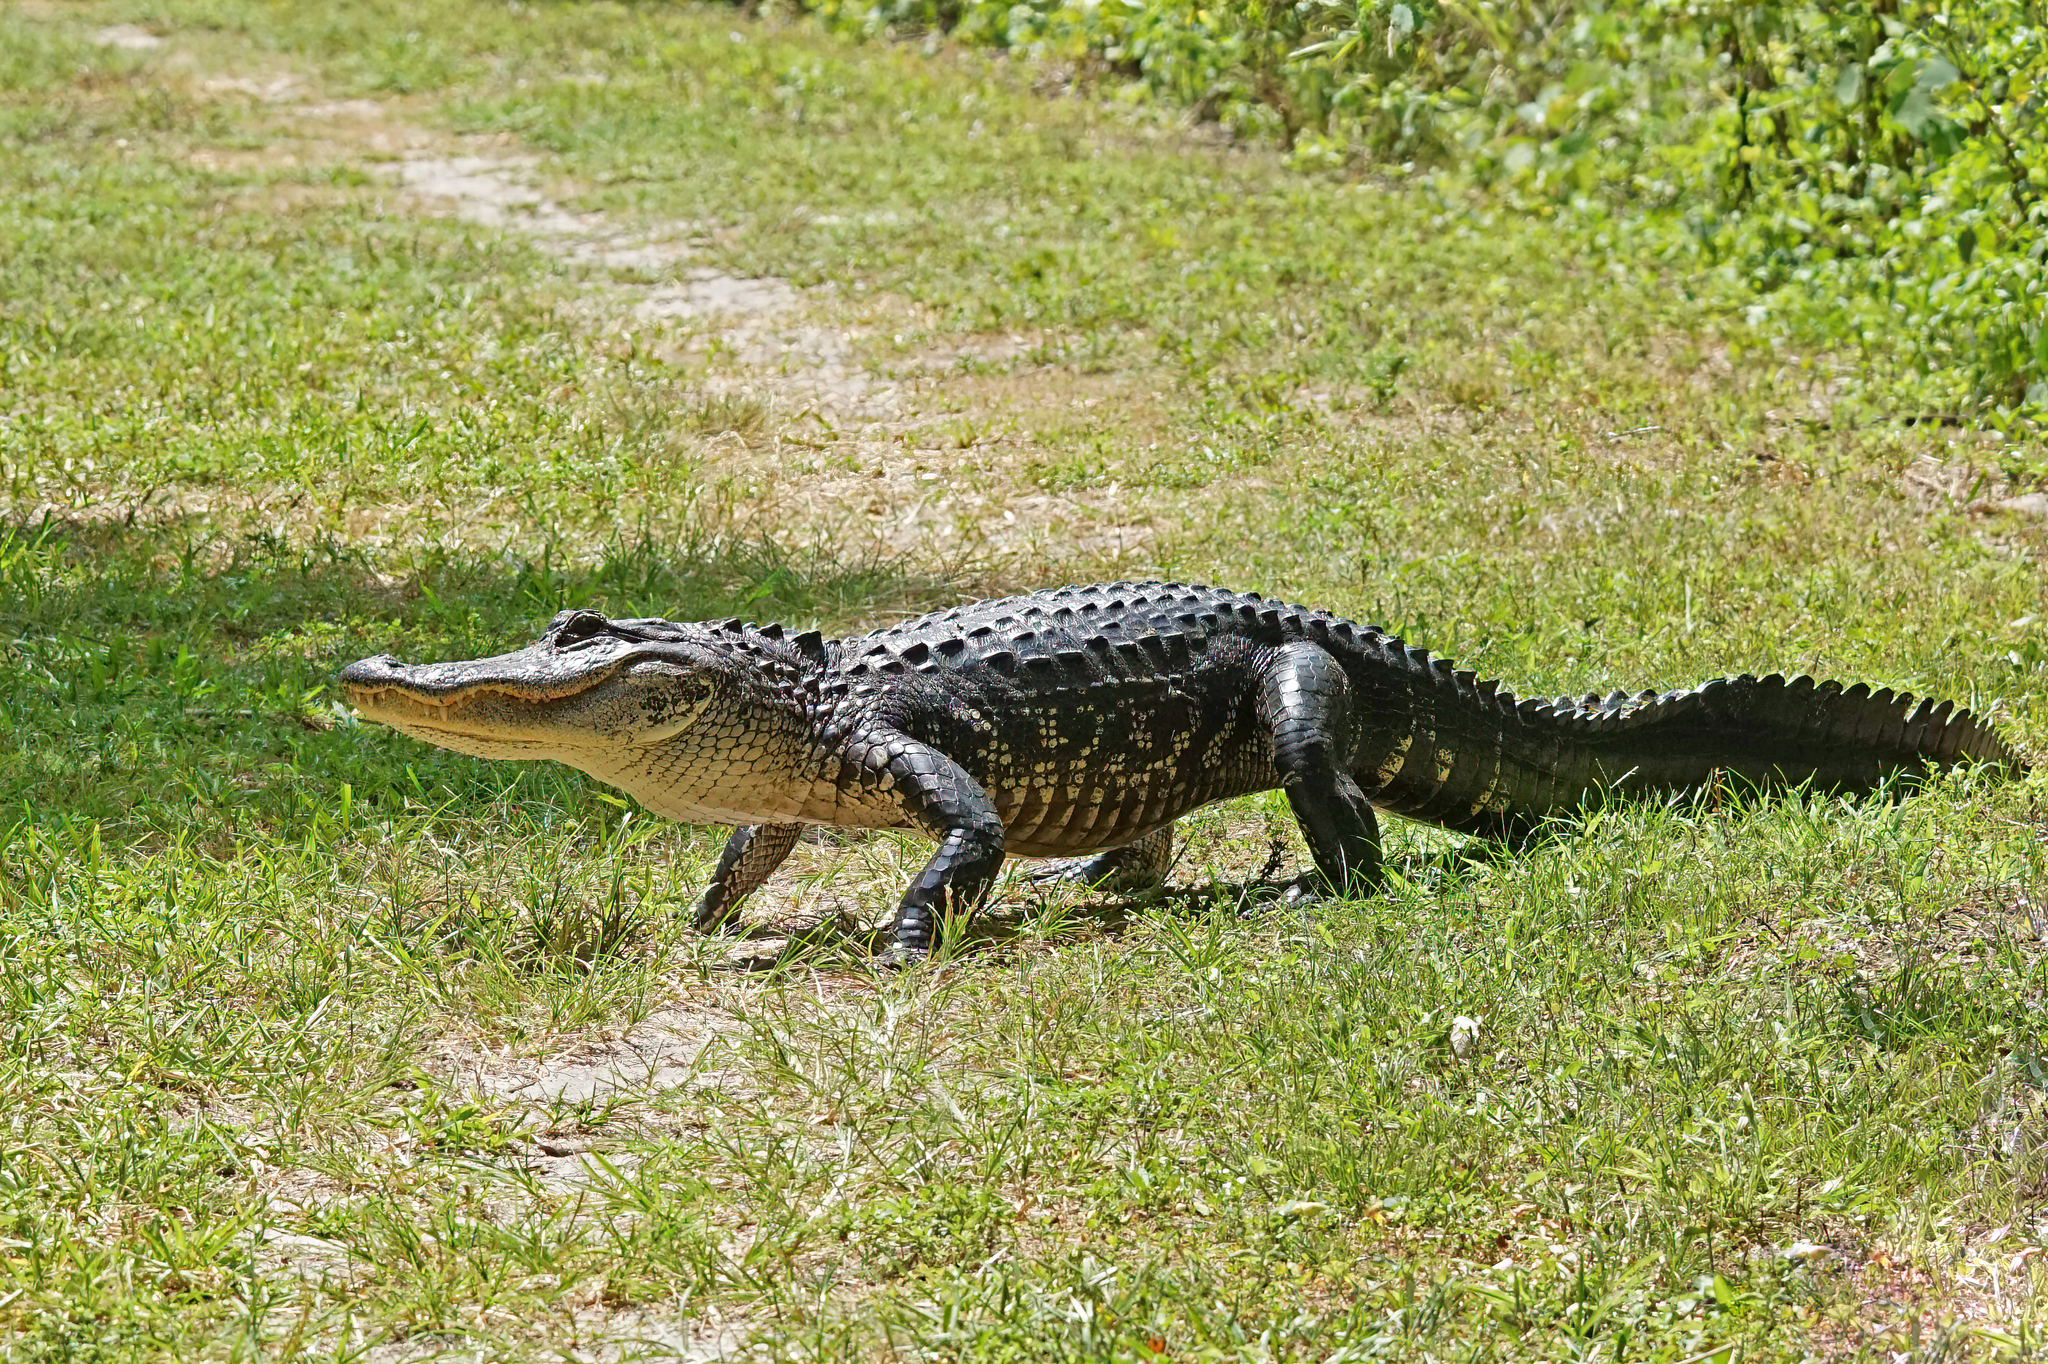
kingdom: Animalia
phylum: Chordata
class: Crocodylia
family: Alligatoridae
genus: Alligator
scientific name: Alligator mississippiensis
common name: American alligator
